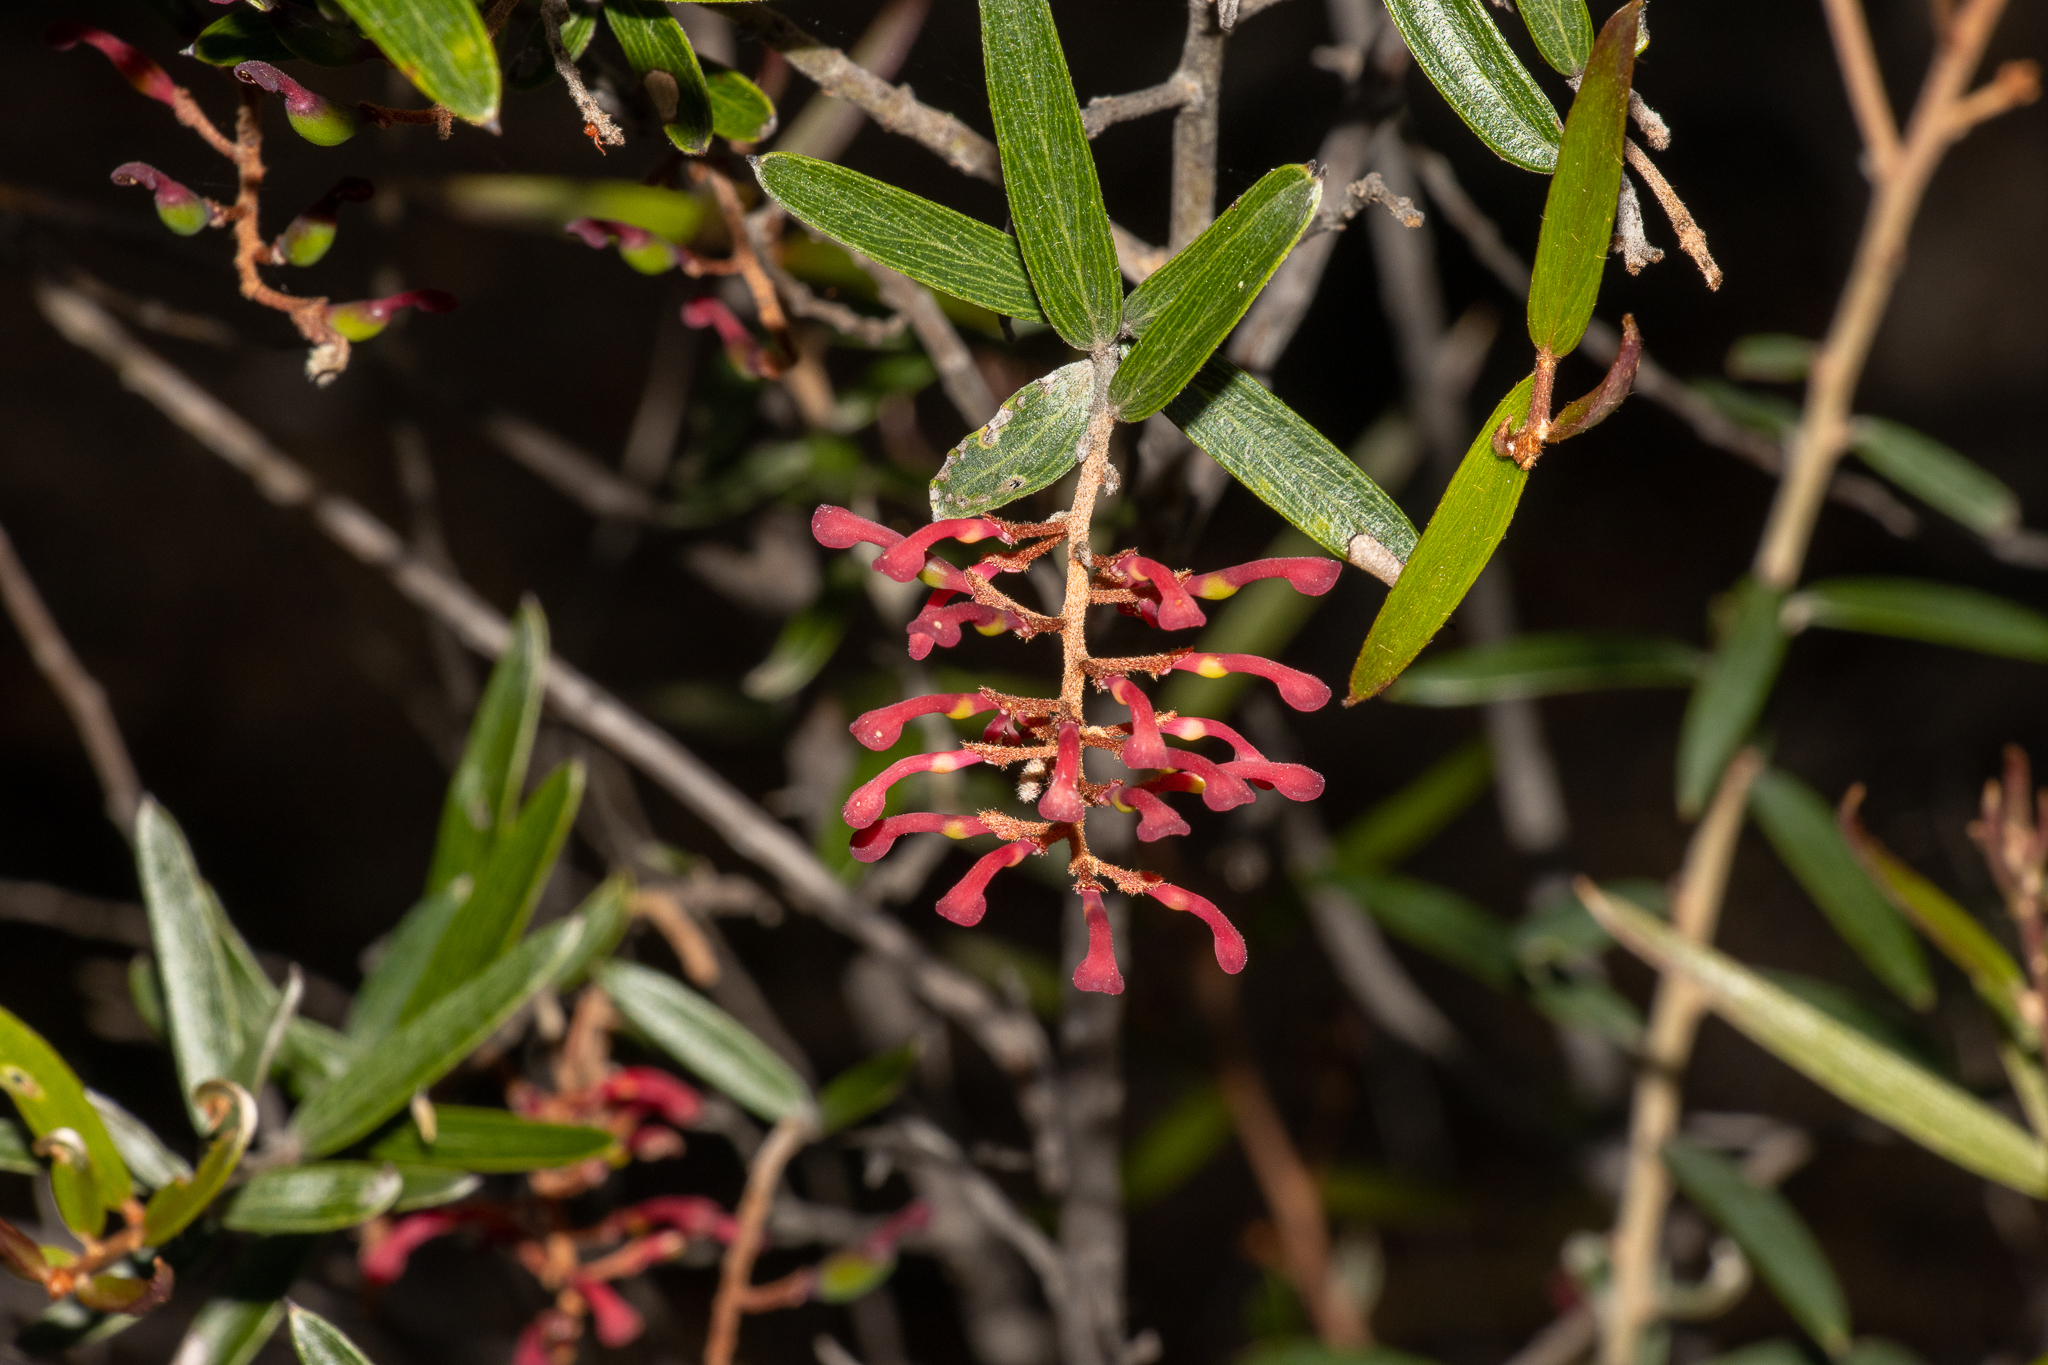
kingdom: Plantae
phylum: Tracheophyta
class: Magnoliopsida
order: Proteales
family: Proteaceae
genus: Grevillea
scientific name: Grevillea aspera
